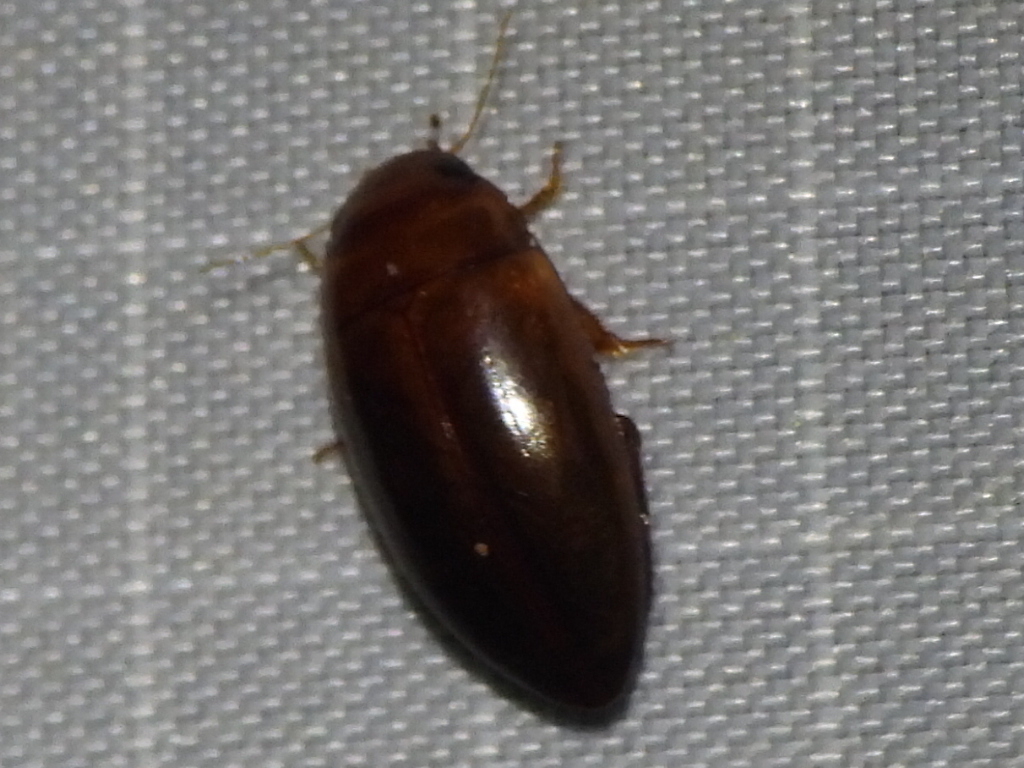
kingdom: Animalia
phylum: Arthropoda
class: Insecta
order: Coleoptera
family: Dytiscidae
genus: Matus
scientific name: Matus relictus
